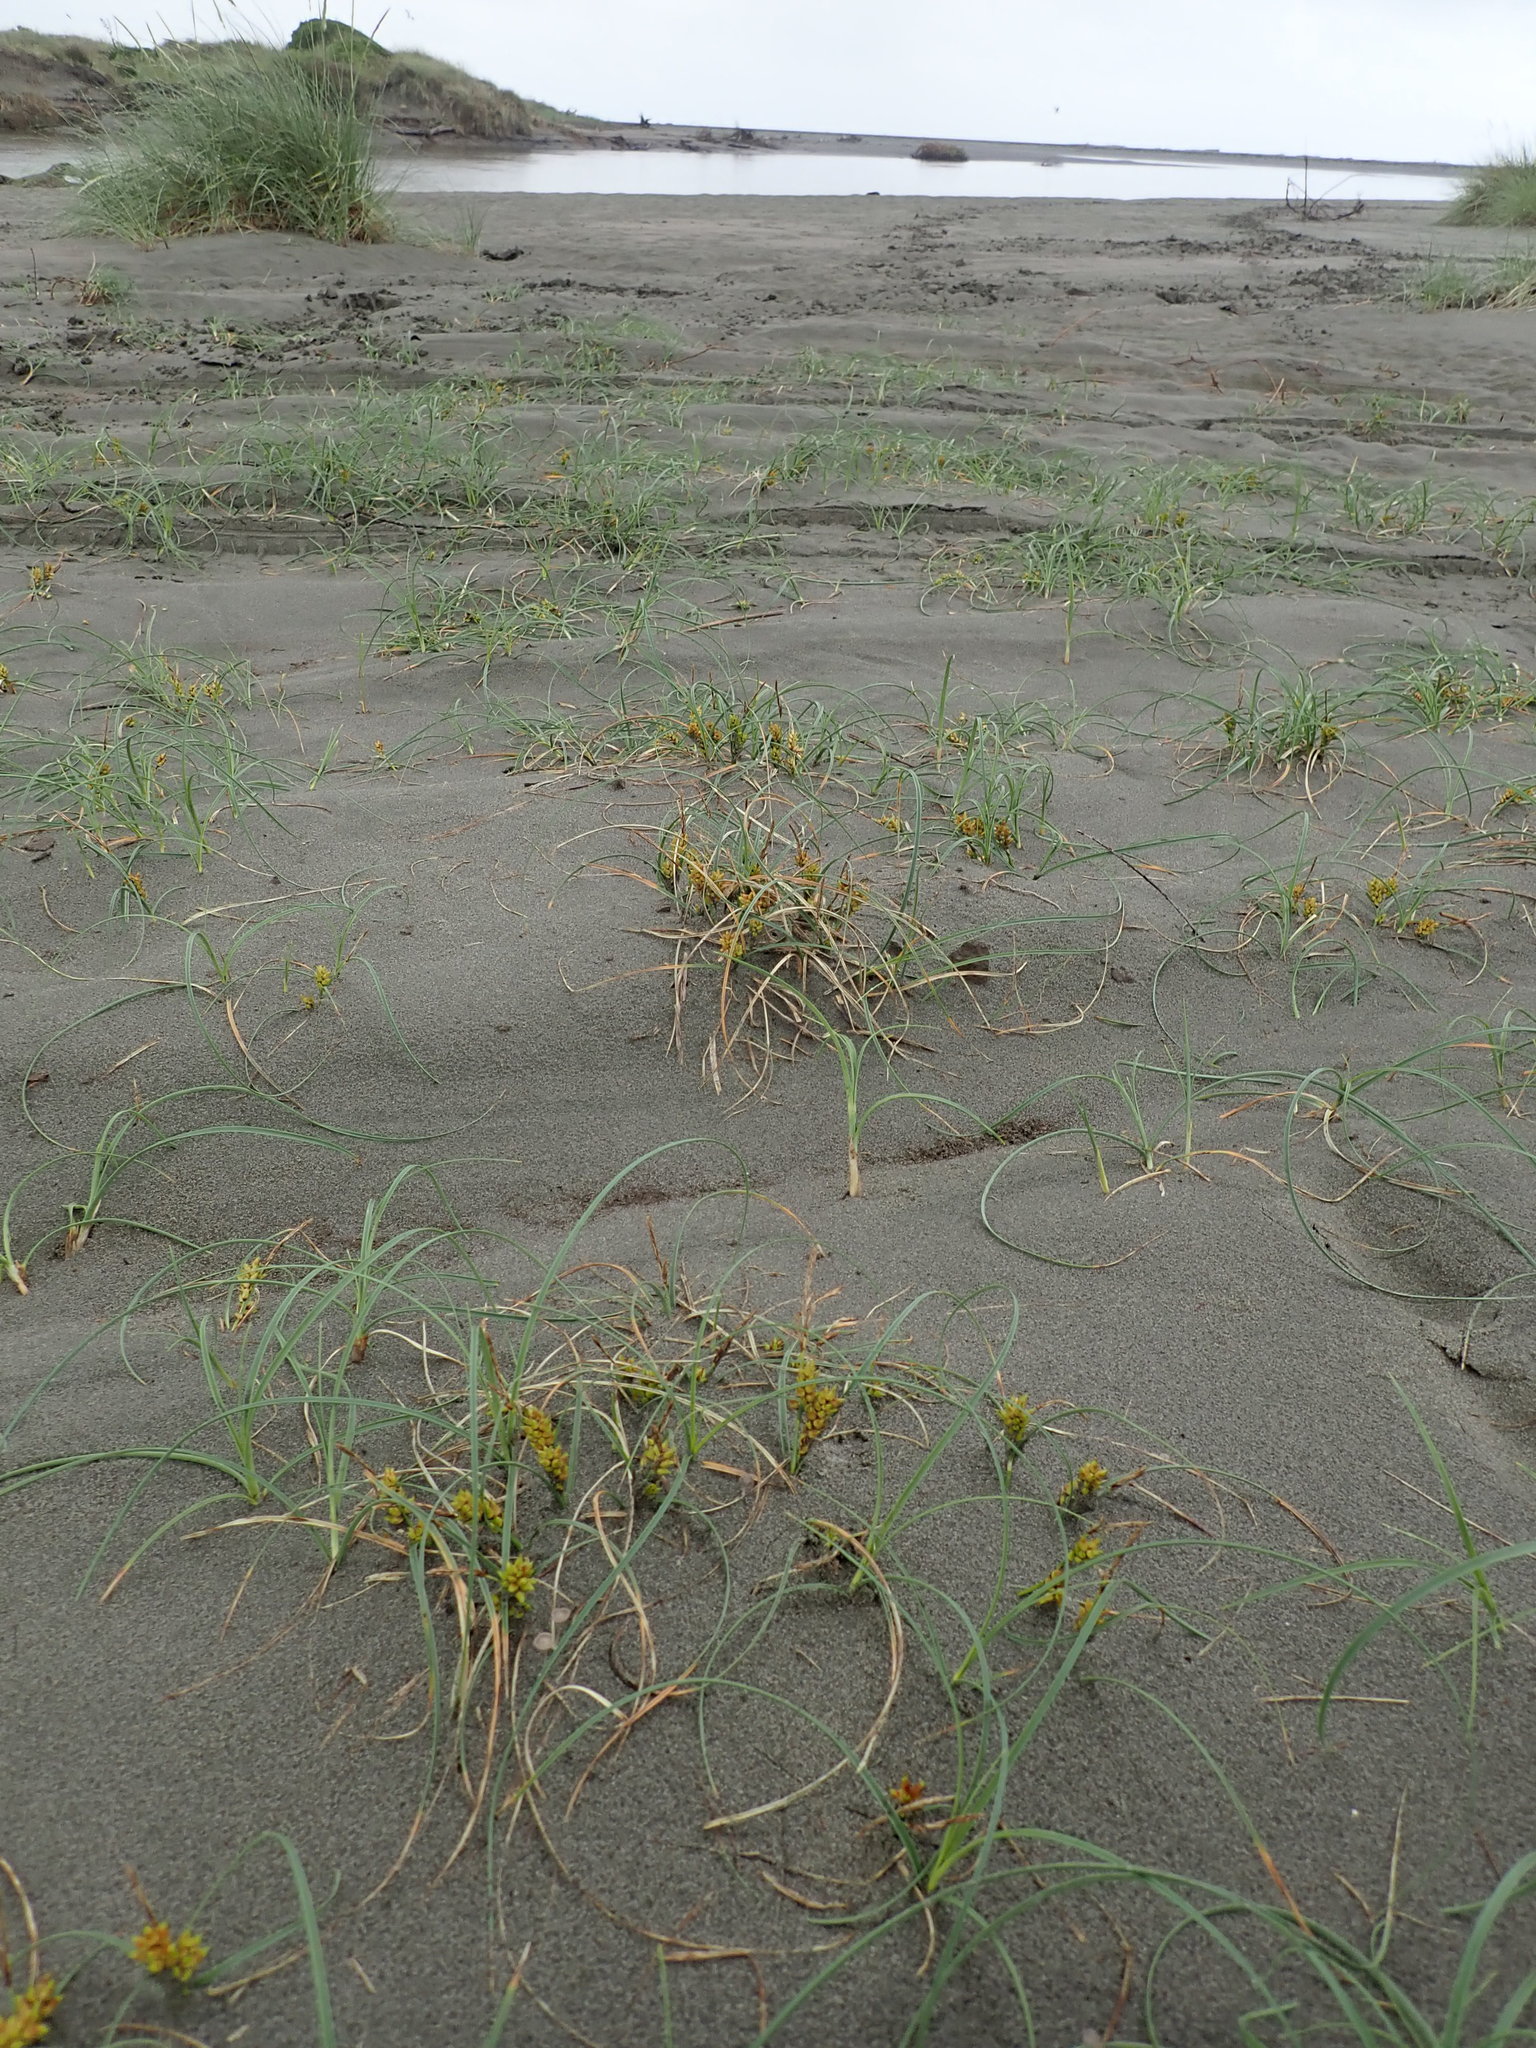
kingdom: Plantae
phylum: Tracheophyta
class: Liliopsida
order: Poales
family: Cyperaceae
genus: Carex
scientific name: Carex pumila
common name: Dwarf sedge
